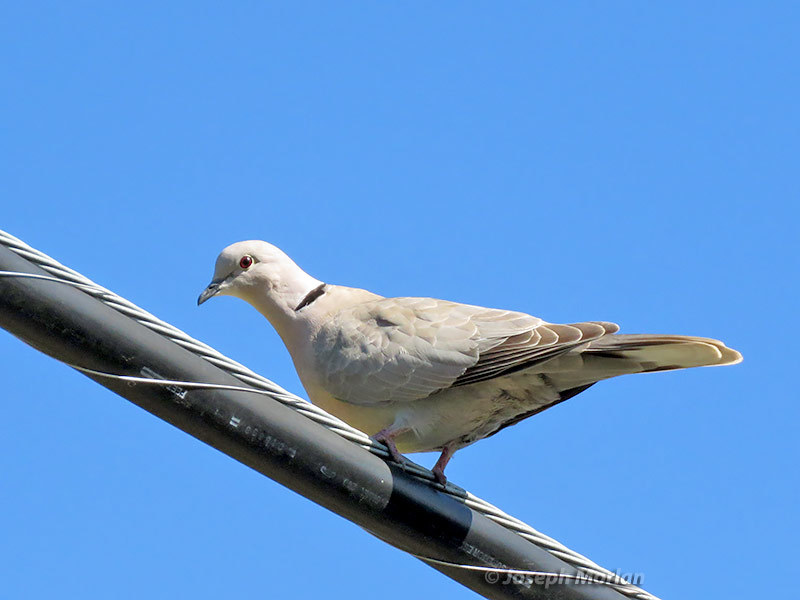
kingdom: Animalia
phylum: Chordata
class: Aves
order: Columbiformes
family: Columbidae
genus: Streptopelia
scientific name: Streptopelia decaocto
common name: Eurasian collared dove
